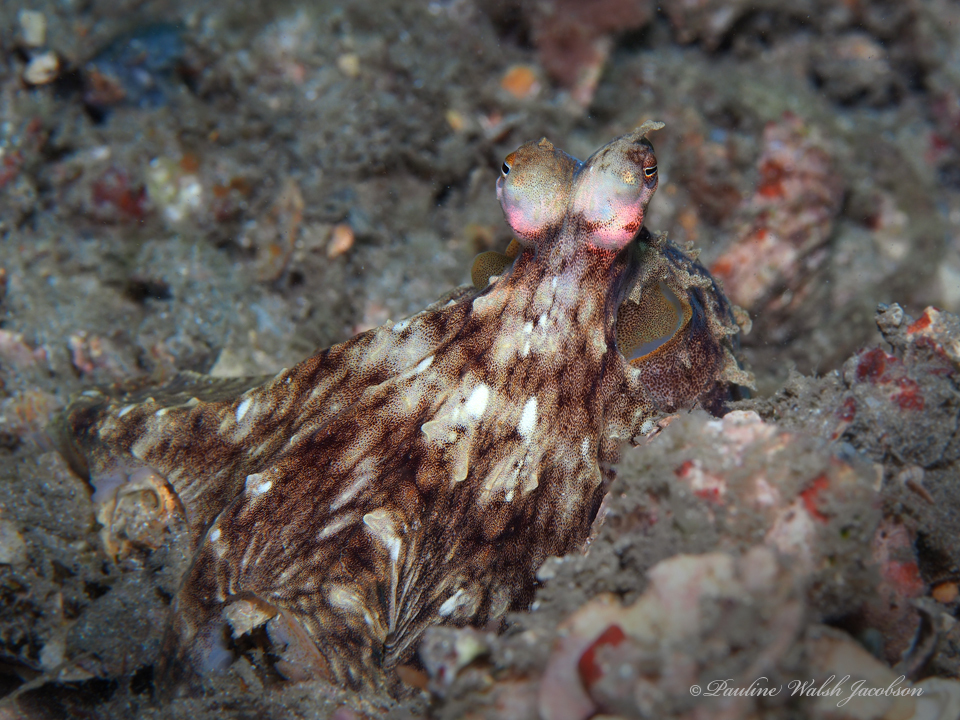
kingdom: Animalia
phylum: Mollusca
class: Cephalopoda
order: Octopoda
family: Octopodidae
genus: Macrotritopus
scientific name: Macrotritopus defilippi
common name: Lilliput longarm octopus
